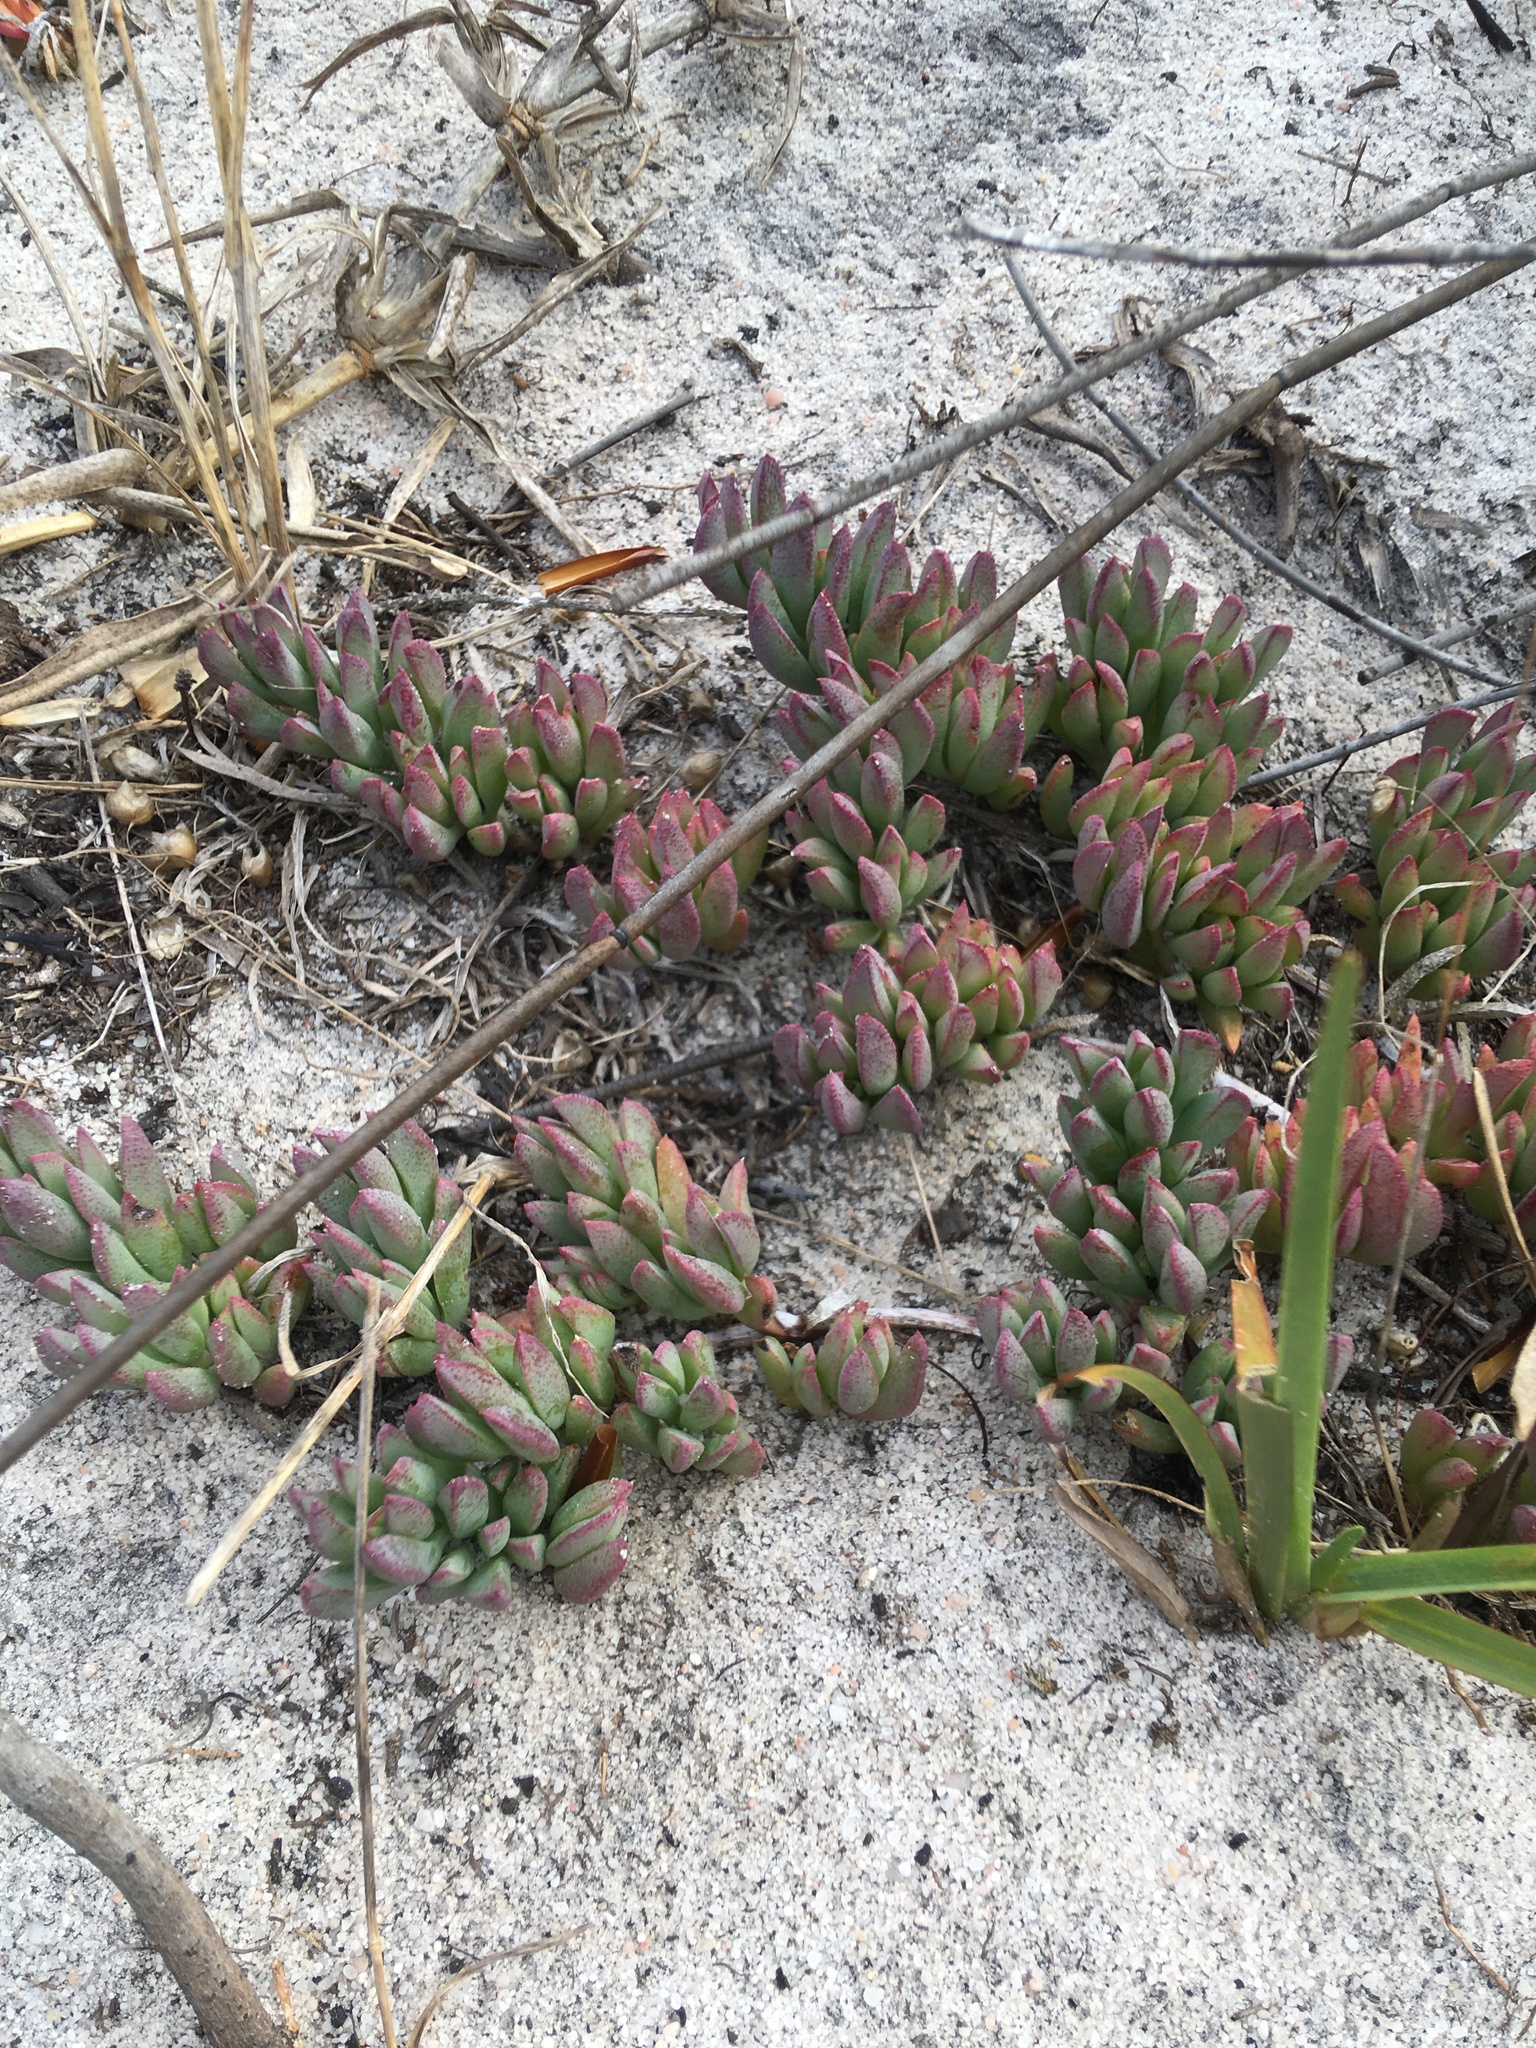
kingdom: Plantae
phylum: Tracheophyta
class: Magnoliopsida
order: Caryophyllales
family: Aizoaceae
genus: Lampranthus
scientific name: Lampranthus reptans
